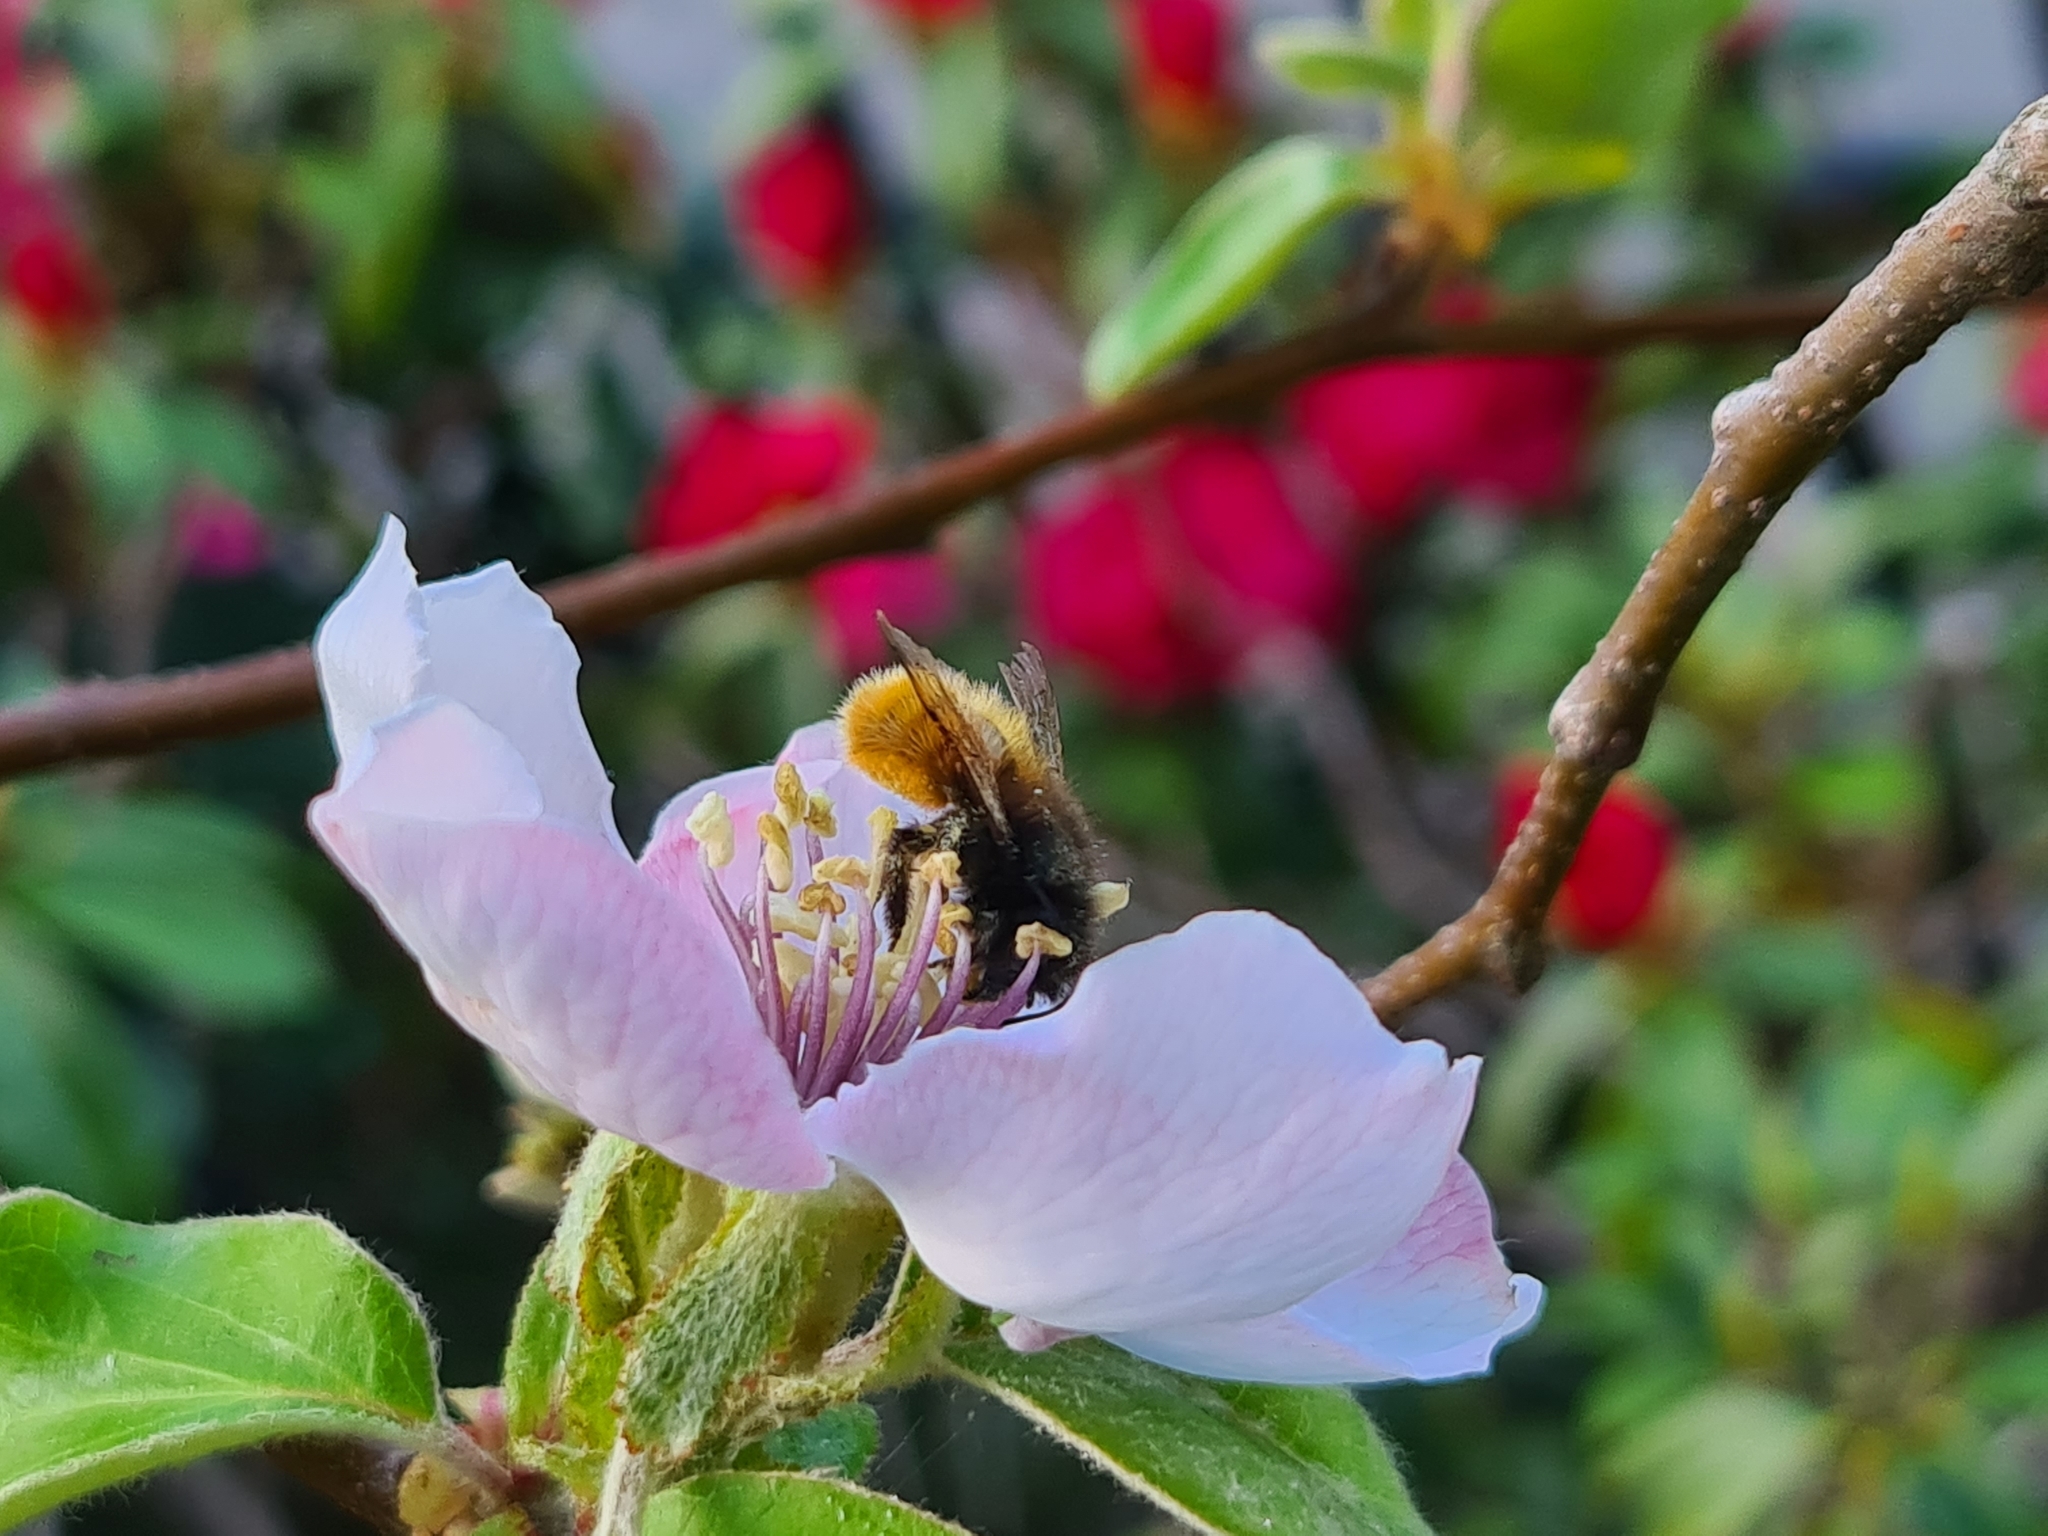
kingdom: Animalia
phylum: Arthropoda
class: Insecta
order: Hymenoptera
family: Megachilidae
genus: Osmia
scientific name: Osmia cornuta
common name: Mason bee
